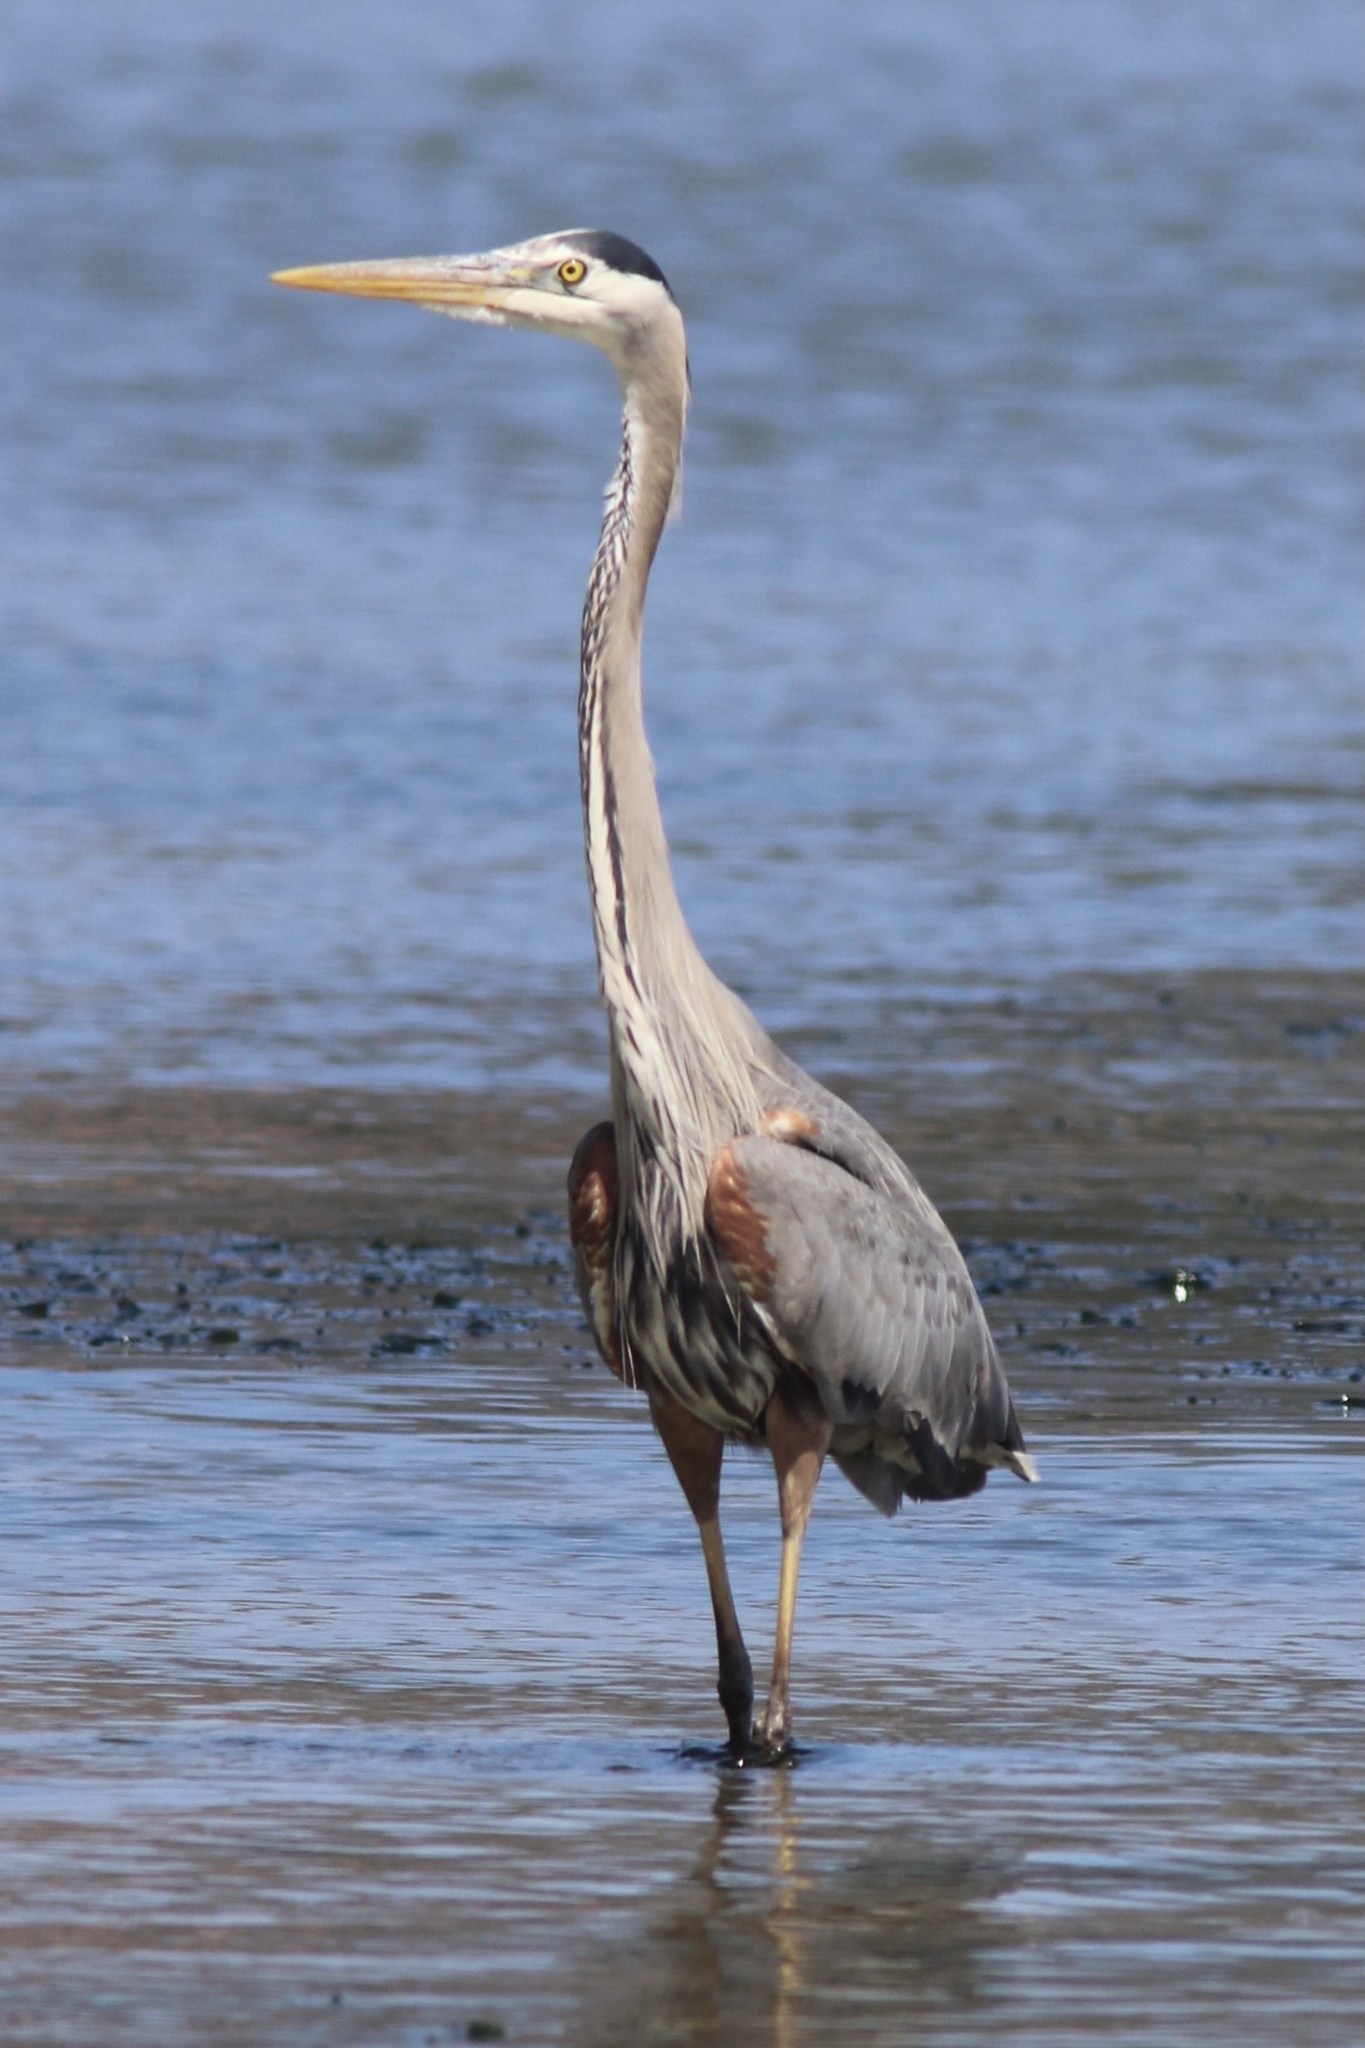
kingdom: Animalia
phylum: Chordata
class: Aves
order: Pelecaniformes
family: Ardeidae
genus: Ardea
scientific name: Ardea herodias
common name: Great blue heron
